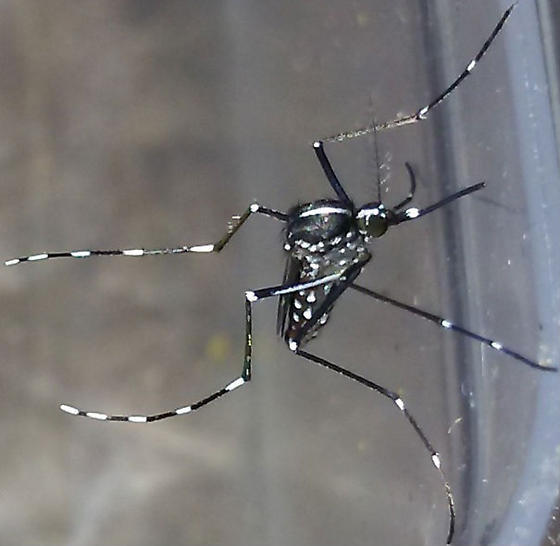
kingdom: Animalia
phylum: Arthropoda
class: Insecta
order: Diptera
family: Culicidae
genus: Aedes
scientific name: Aedes albopictus
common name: Tiger mosquito
